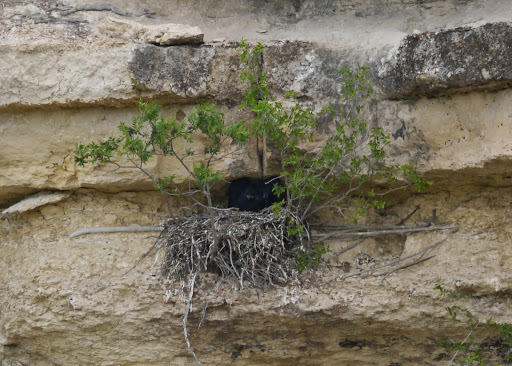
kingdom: Animalia
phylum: Chordata
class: Aves
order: Passeriformes
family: Corvidae
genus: Corvus
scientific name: Corvus corax
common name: Common raven
